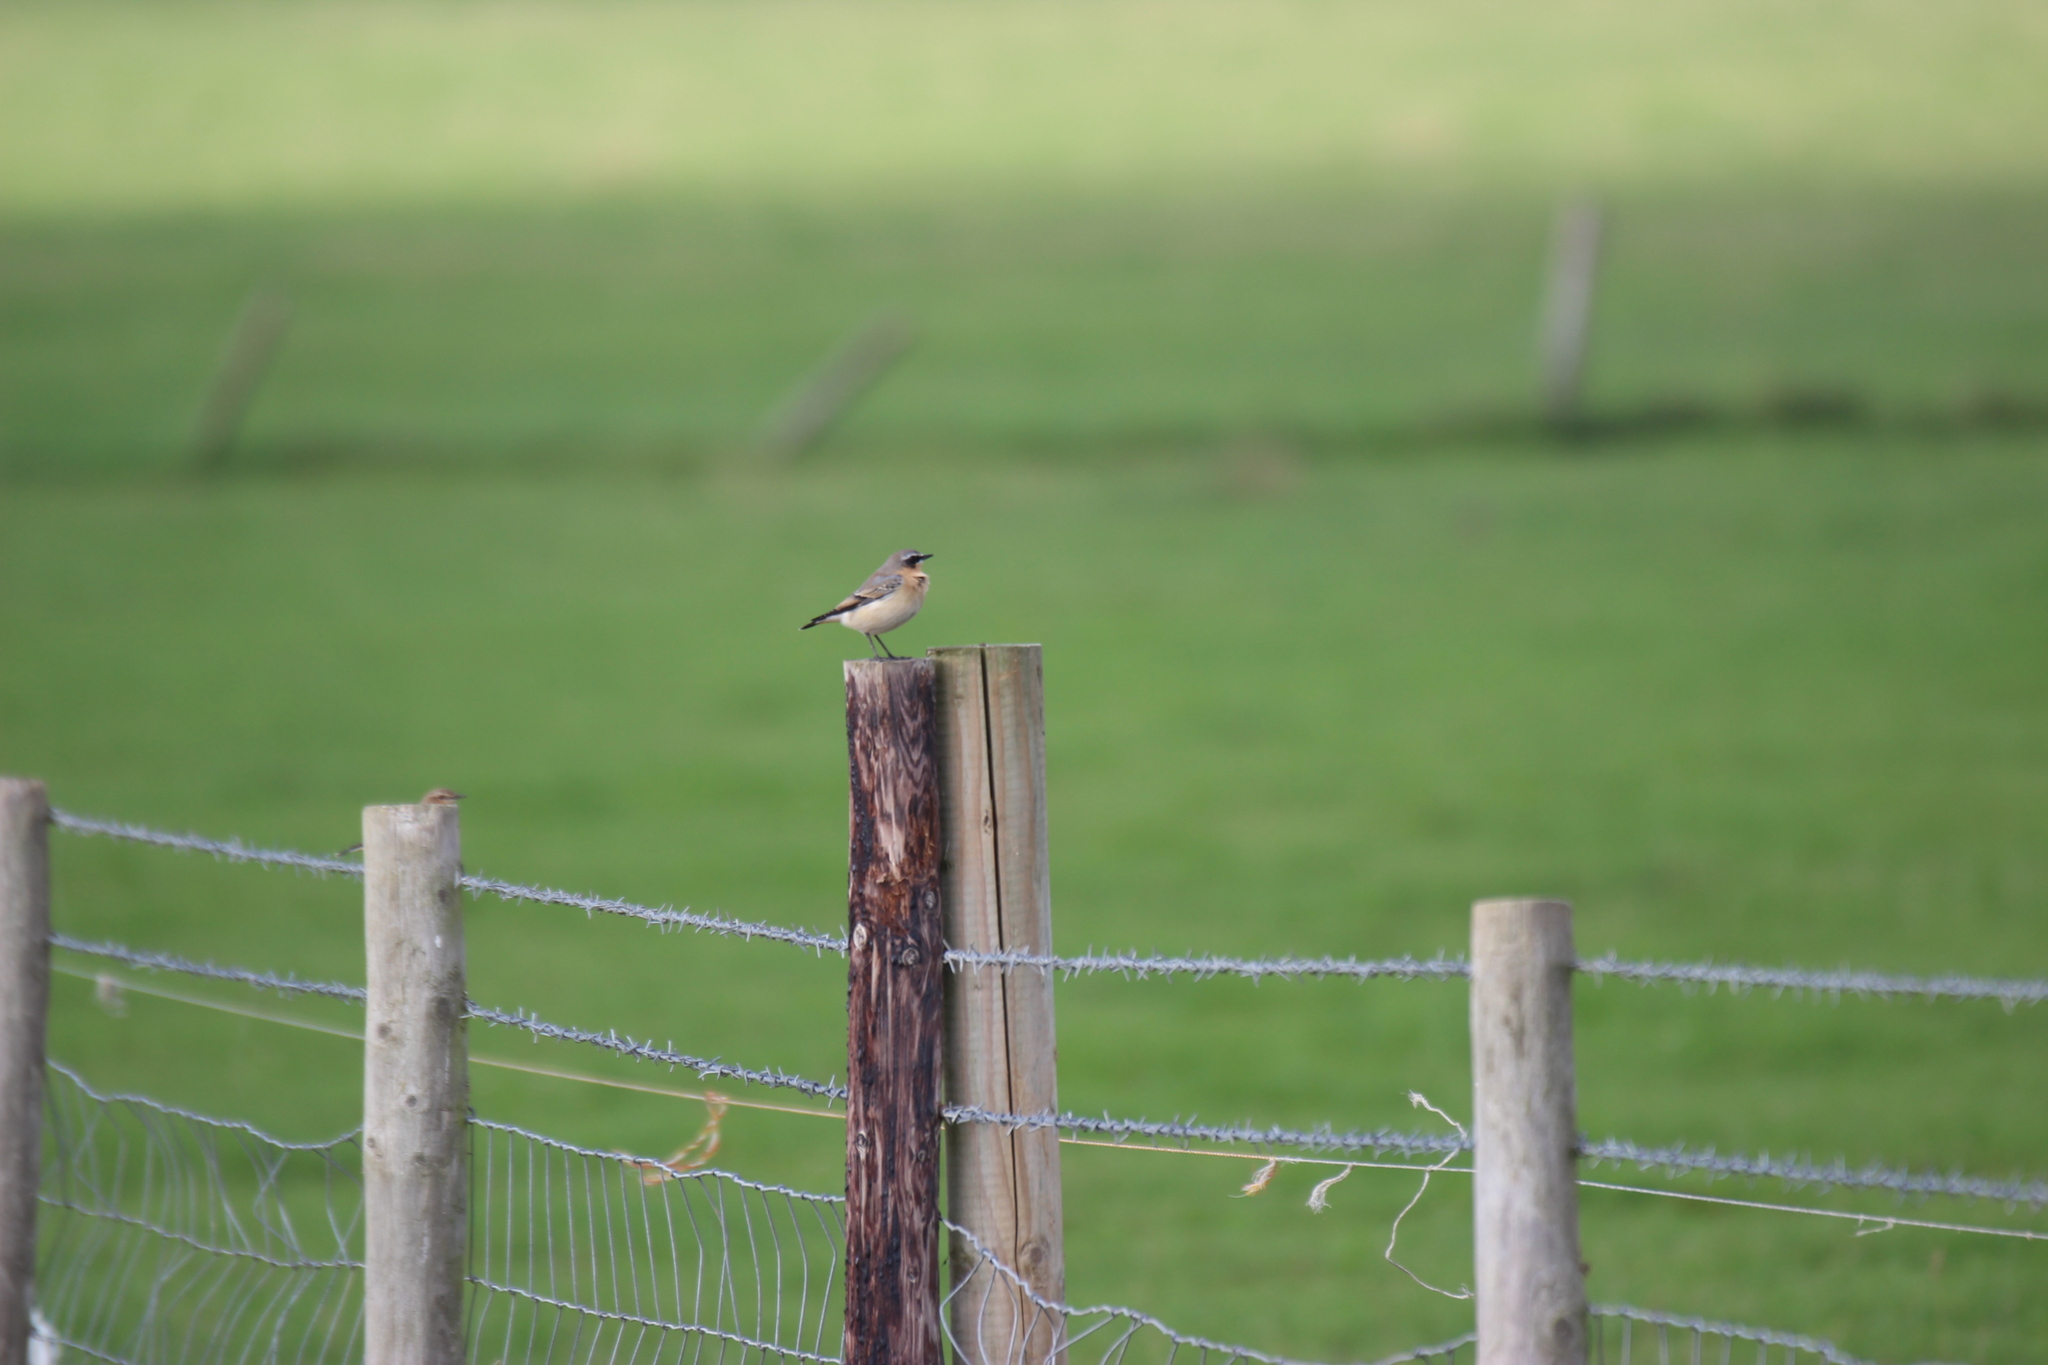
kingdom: Animalia
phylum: Chordata
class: Aves
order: Passeriformes
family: Muscicapidae
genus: Oenanthe
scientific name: Oenanthe oenanthe
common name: Northern wheatear
